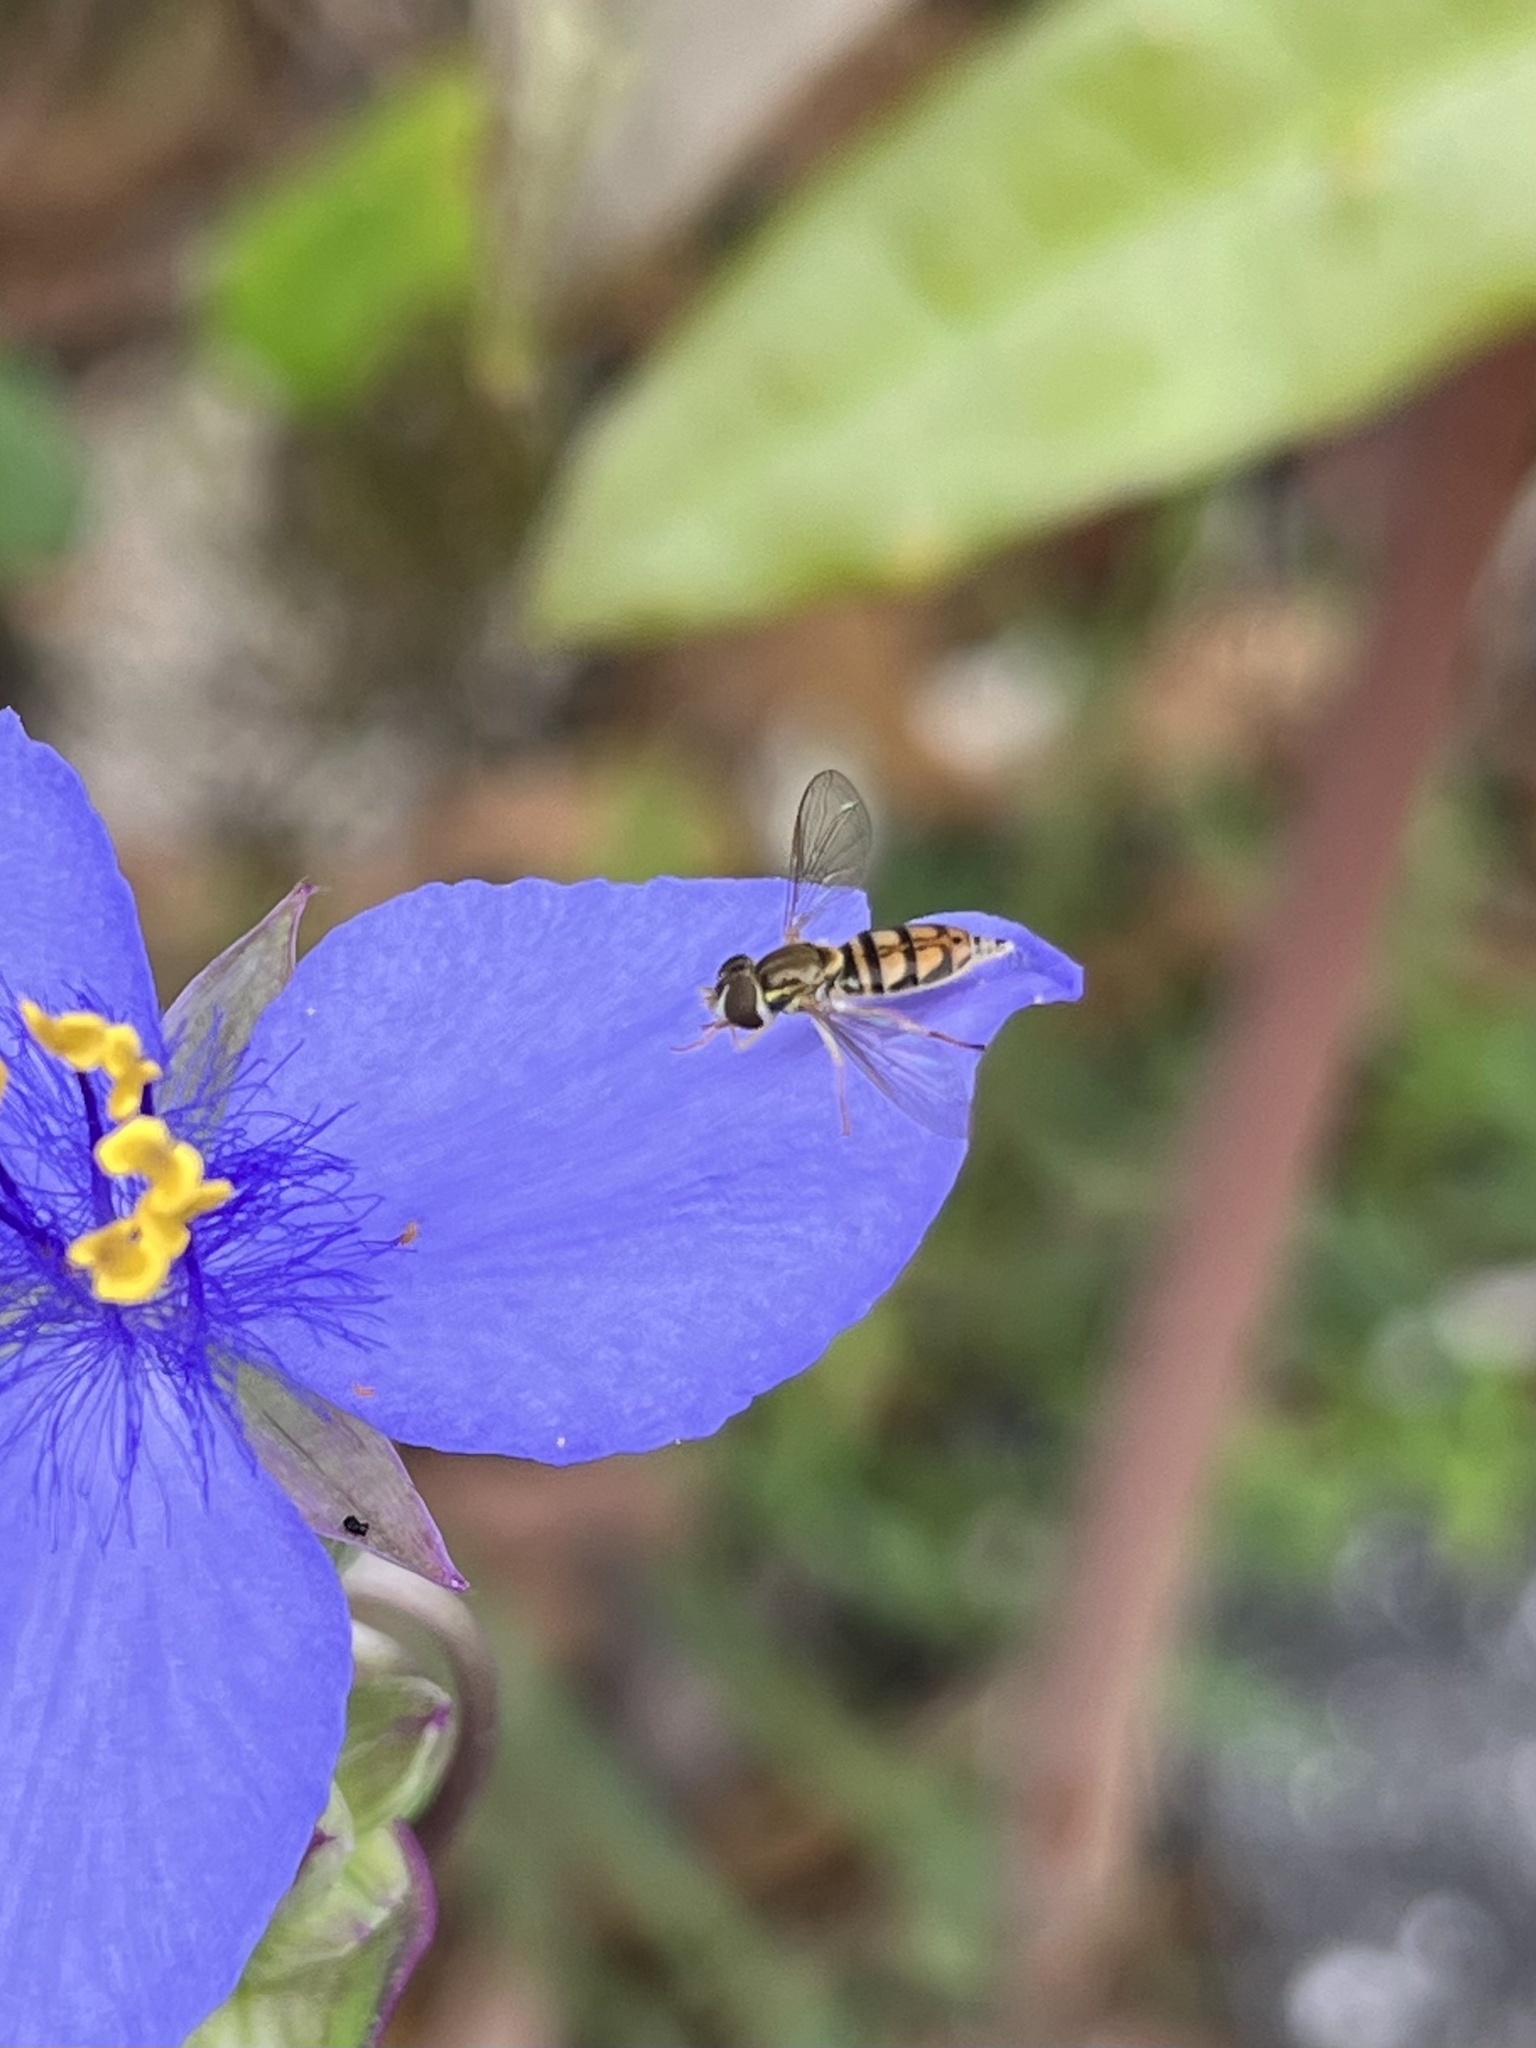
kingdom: Animalia
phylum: Arthropoda
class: Insecta
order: Diptera
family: Syrphidae
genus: Toxomerus
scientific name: Toxomerus marginatus
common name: Syrphid fly
